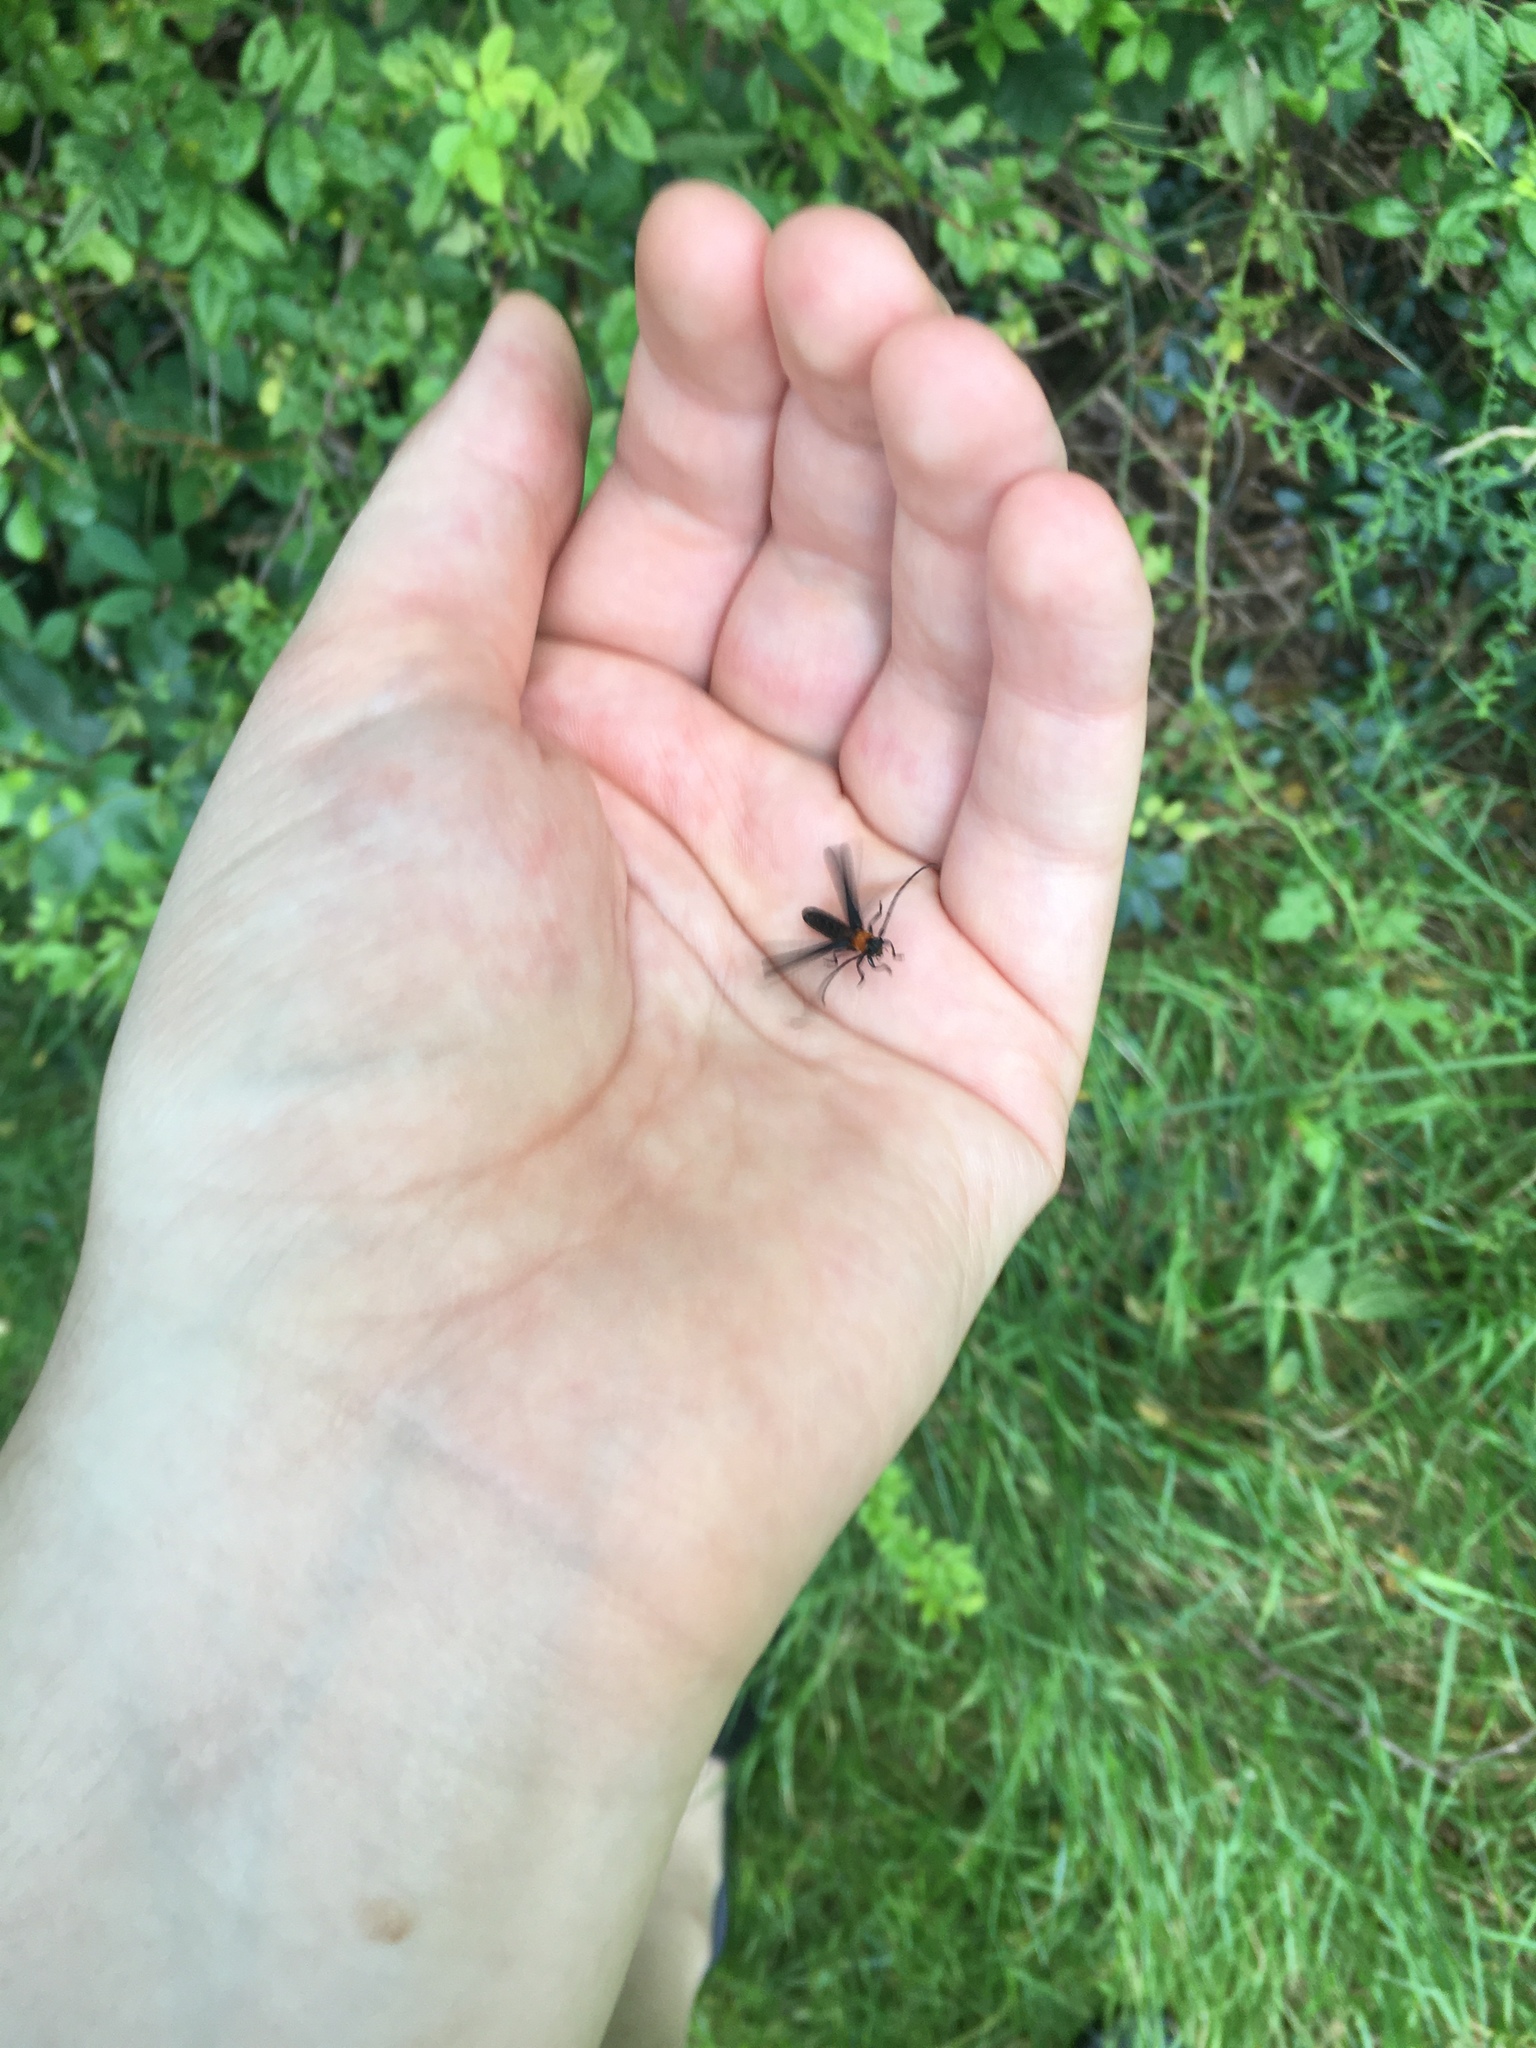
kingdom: Animalia
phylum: Arthropoda
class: Insecta
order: Coleoptera
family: Cerambycidae
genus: Batyle
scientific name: Batyle ignicollis
